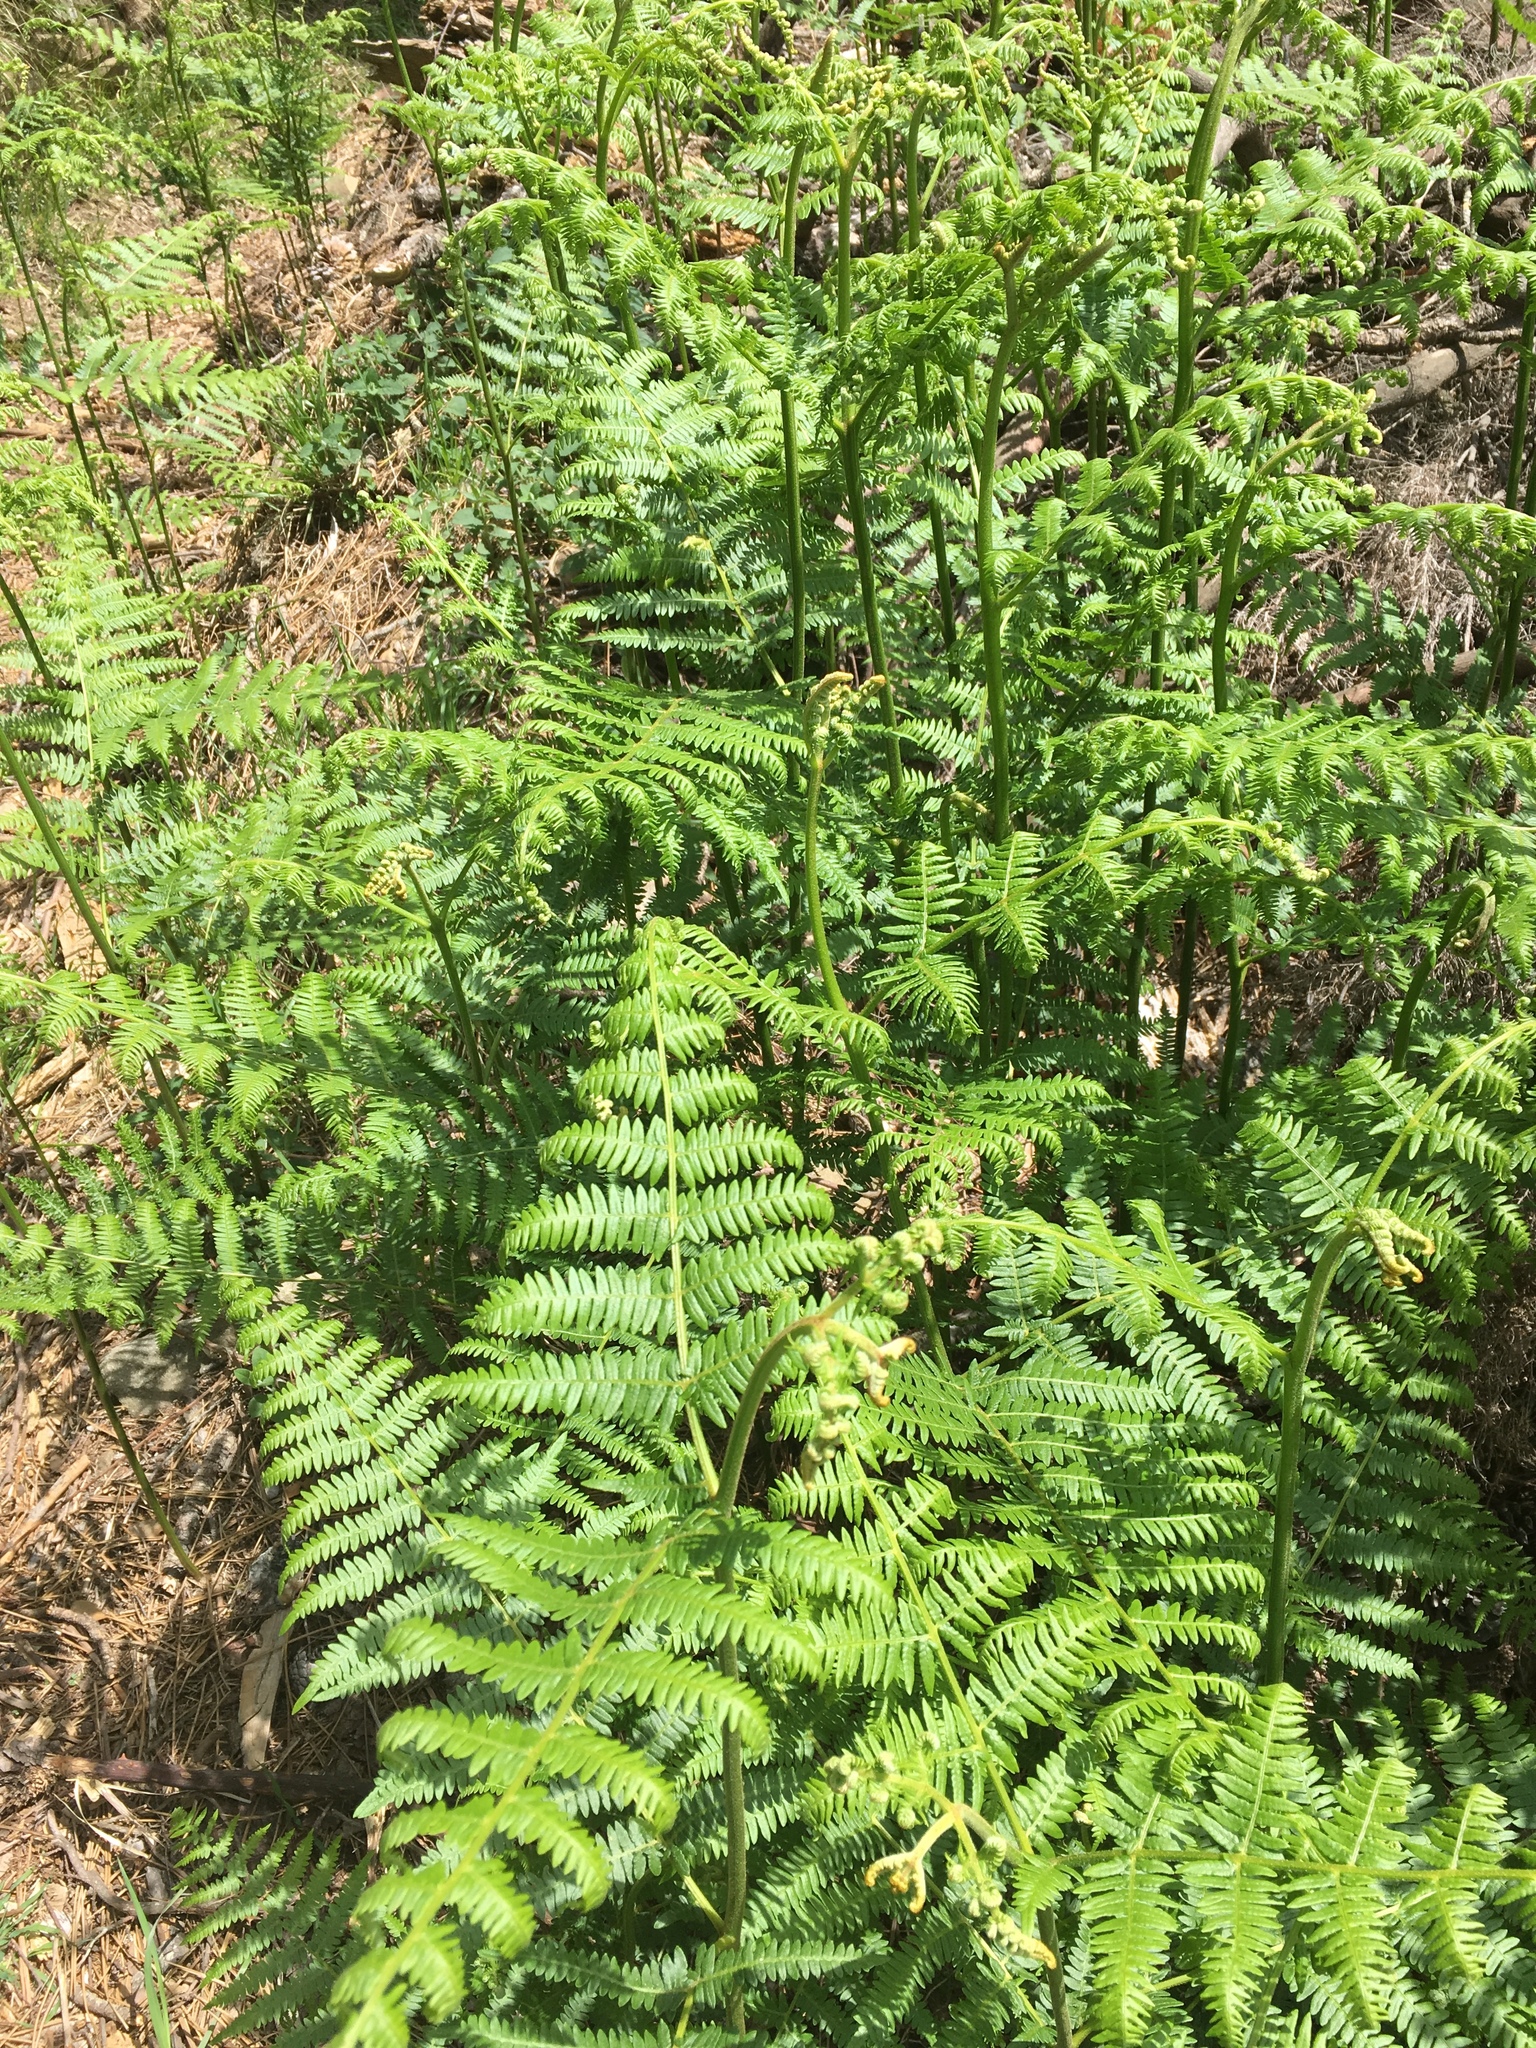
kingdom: Plantae
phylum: Tracheophyta
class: Polypodiopsida
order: Polypodiales
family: Dennstaedtiaceae
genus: Pteridium
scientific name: Pteridium aquilinum
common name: Bracken
